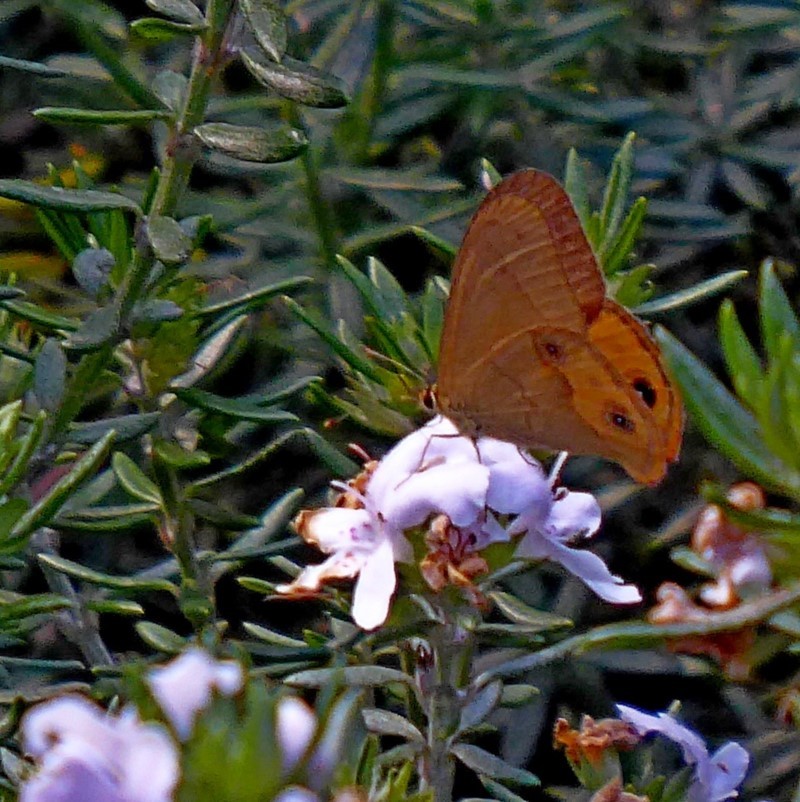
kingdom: Animalia
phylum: Arthropoda
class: Insecta
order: Lepidoptera
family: Nymphalidae
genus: Hypocysta
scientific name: Hypocysta metirius
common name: Brown ringlet
